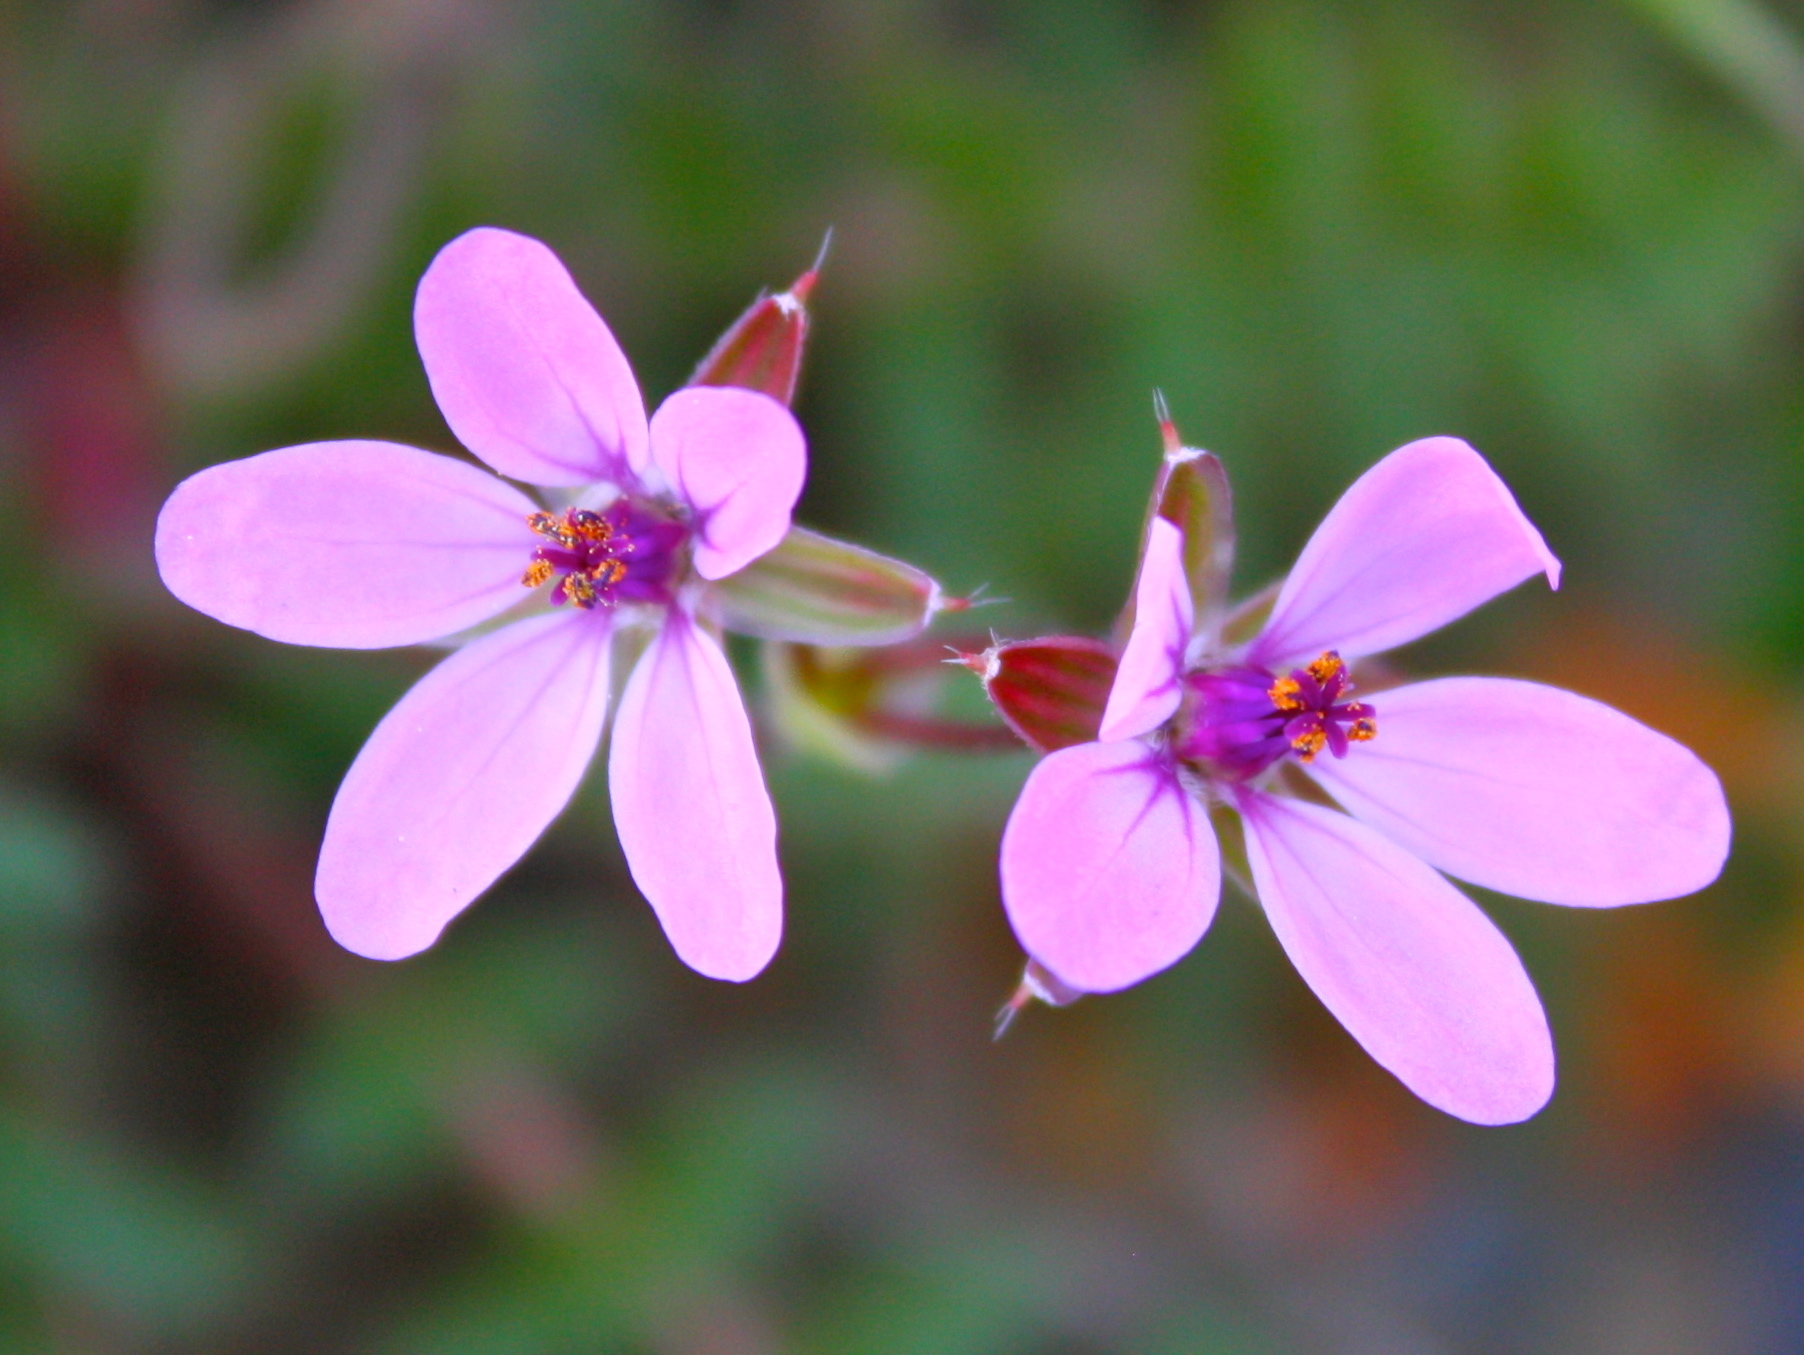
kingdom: Plantae
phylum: Tracheophyta
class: Magnoliopsida
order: Geraniales
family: Geraniaceae
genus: Erodium
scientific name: Erodium cicutarium
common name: Common stork's-bill
